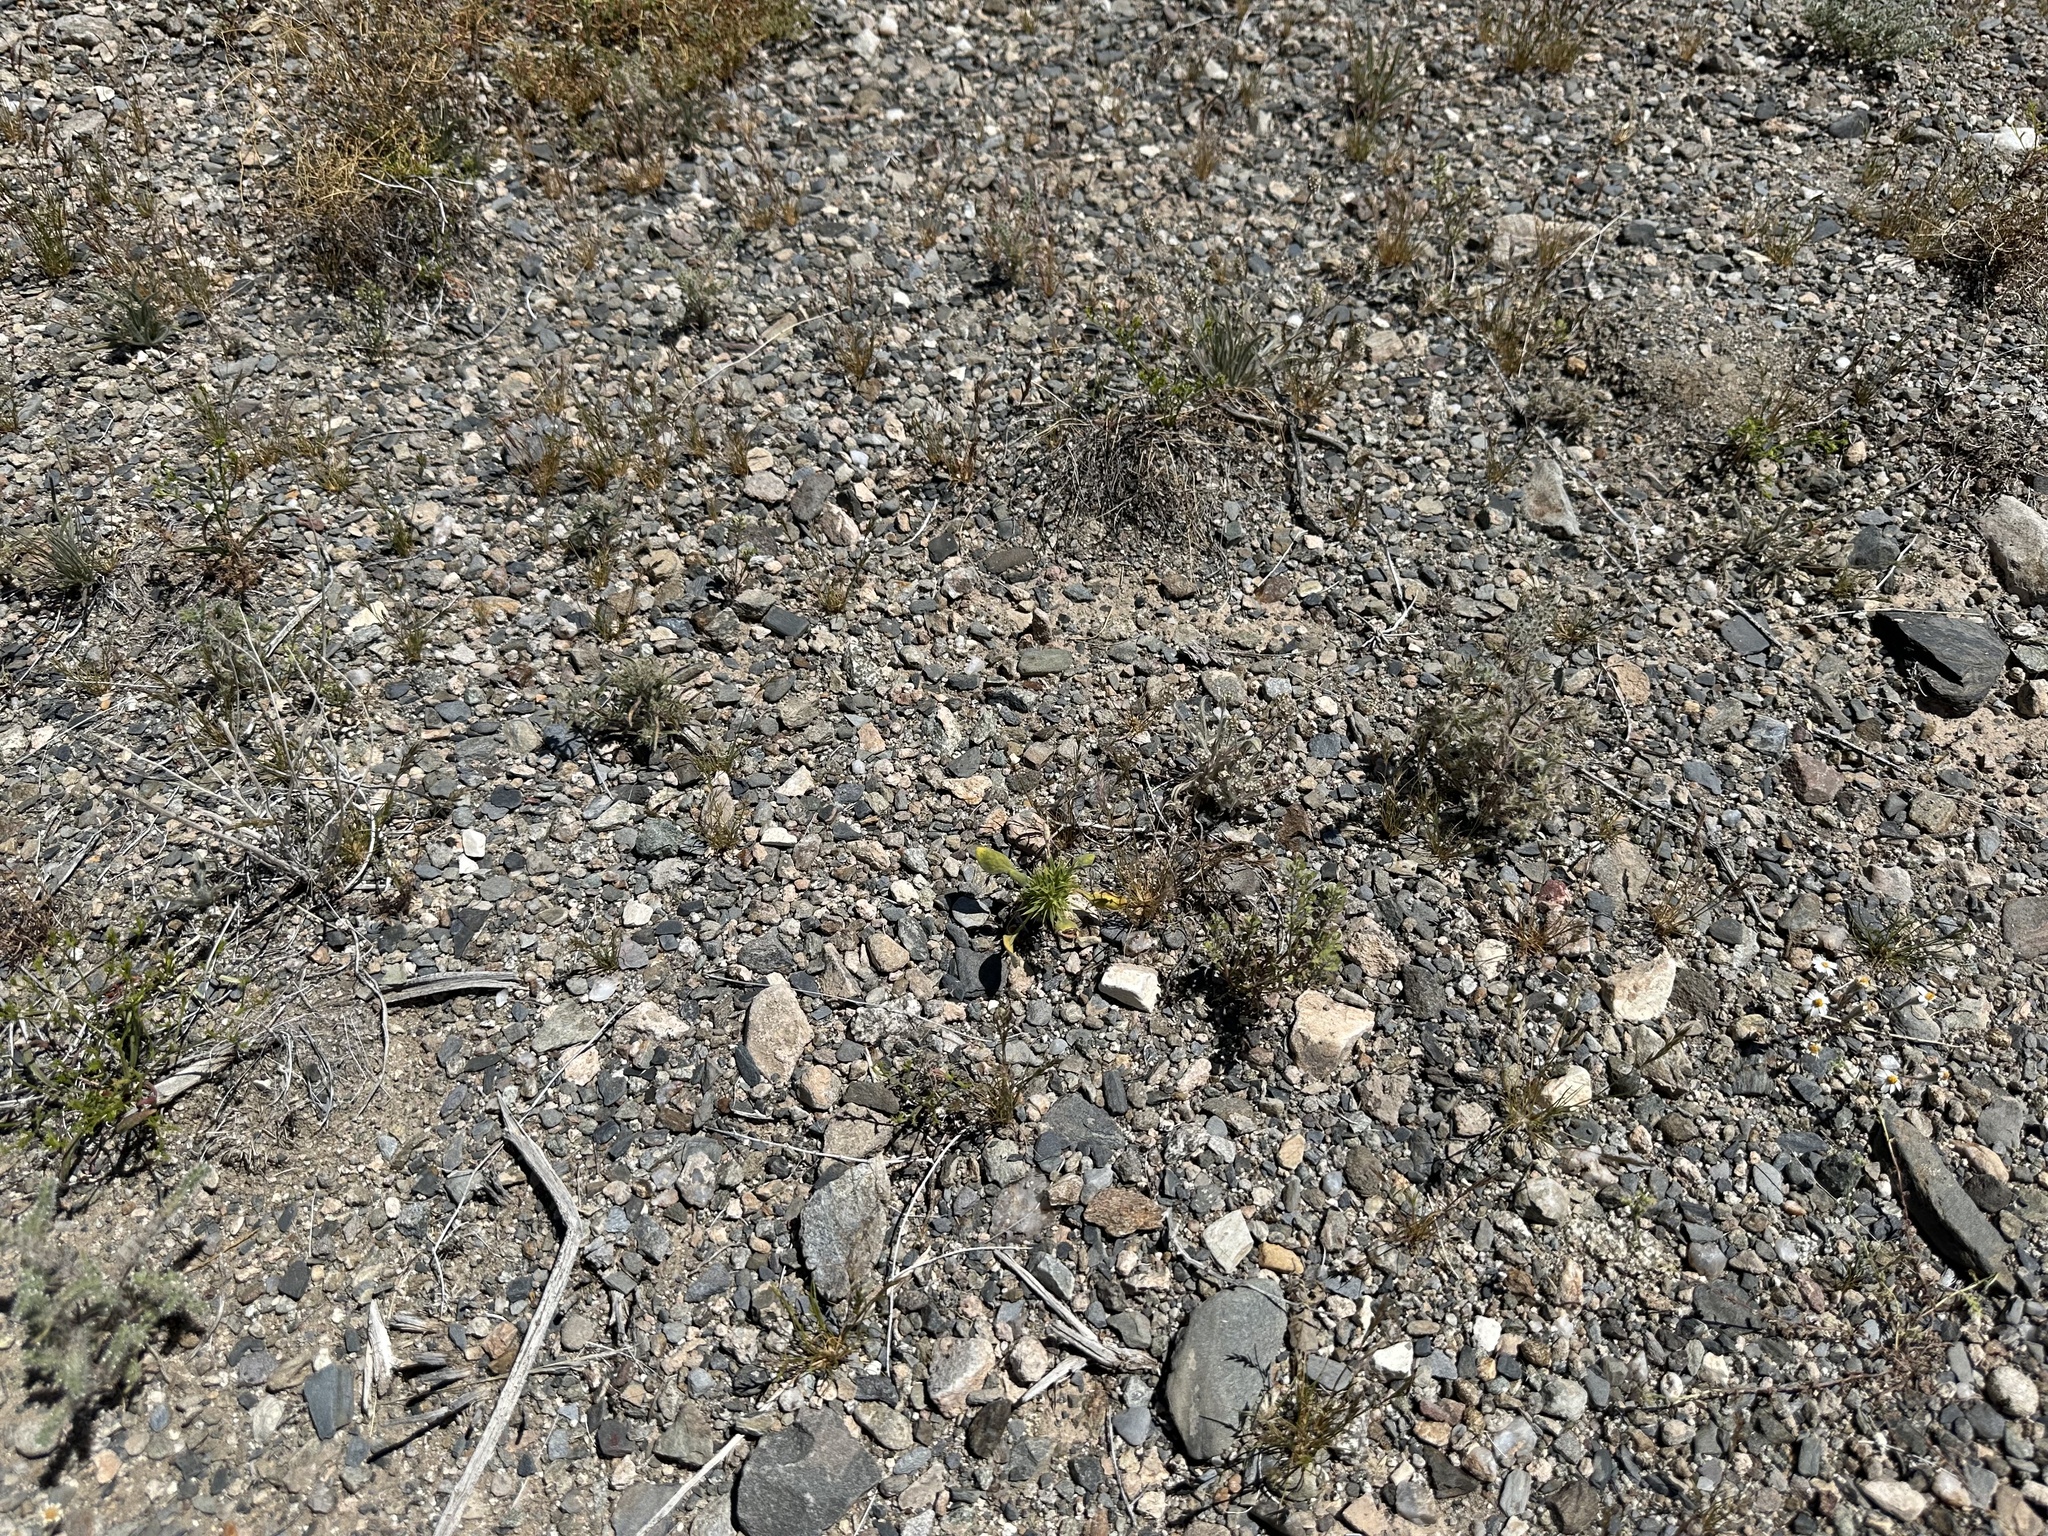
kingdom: Plantae
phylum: Tracheophyta
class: Magnoliopsida
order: Caryophyllales
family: Polygonaceae
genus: Chorizanthe
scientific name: Chorizanthe rigida
